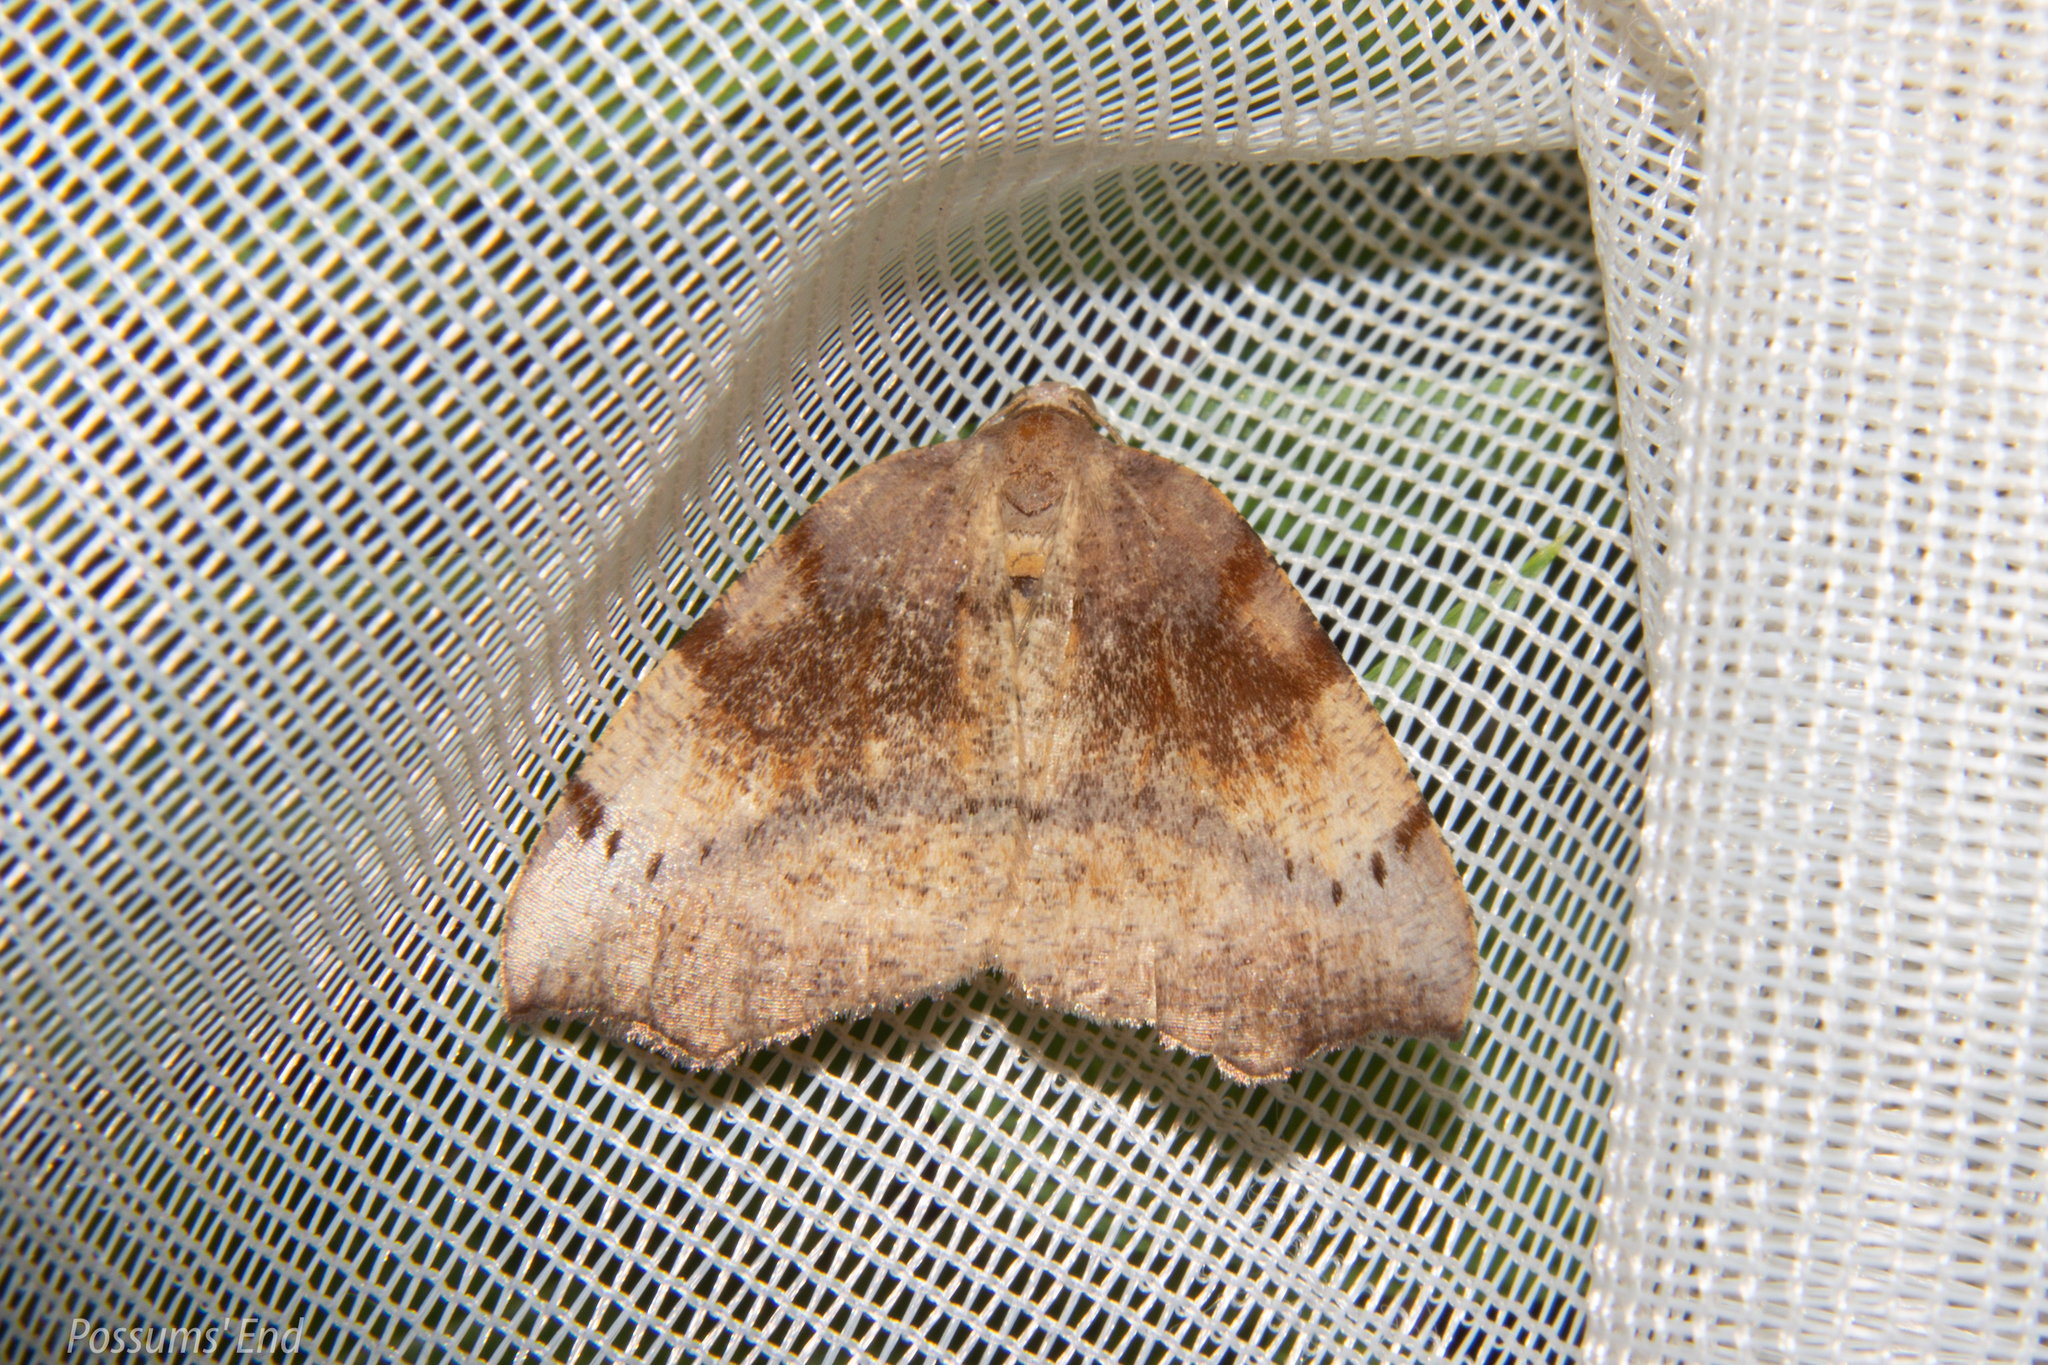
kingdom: Animalia
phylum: Arthropoda
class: Insecta
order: Lepidoptera
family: Geometridae
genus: Sestra
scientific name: Sestra flexata
